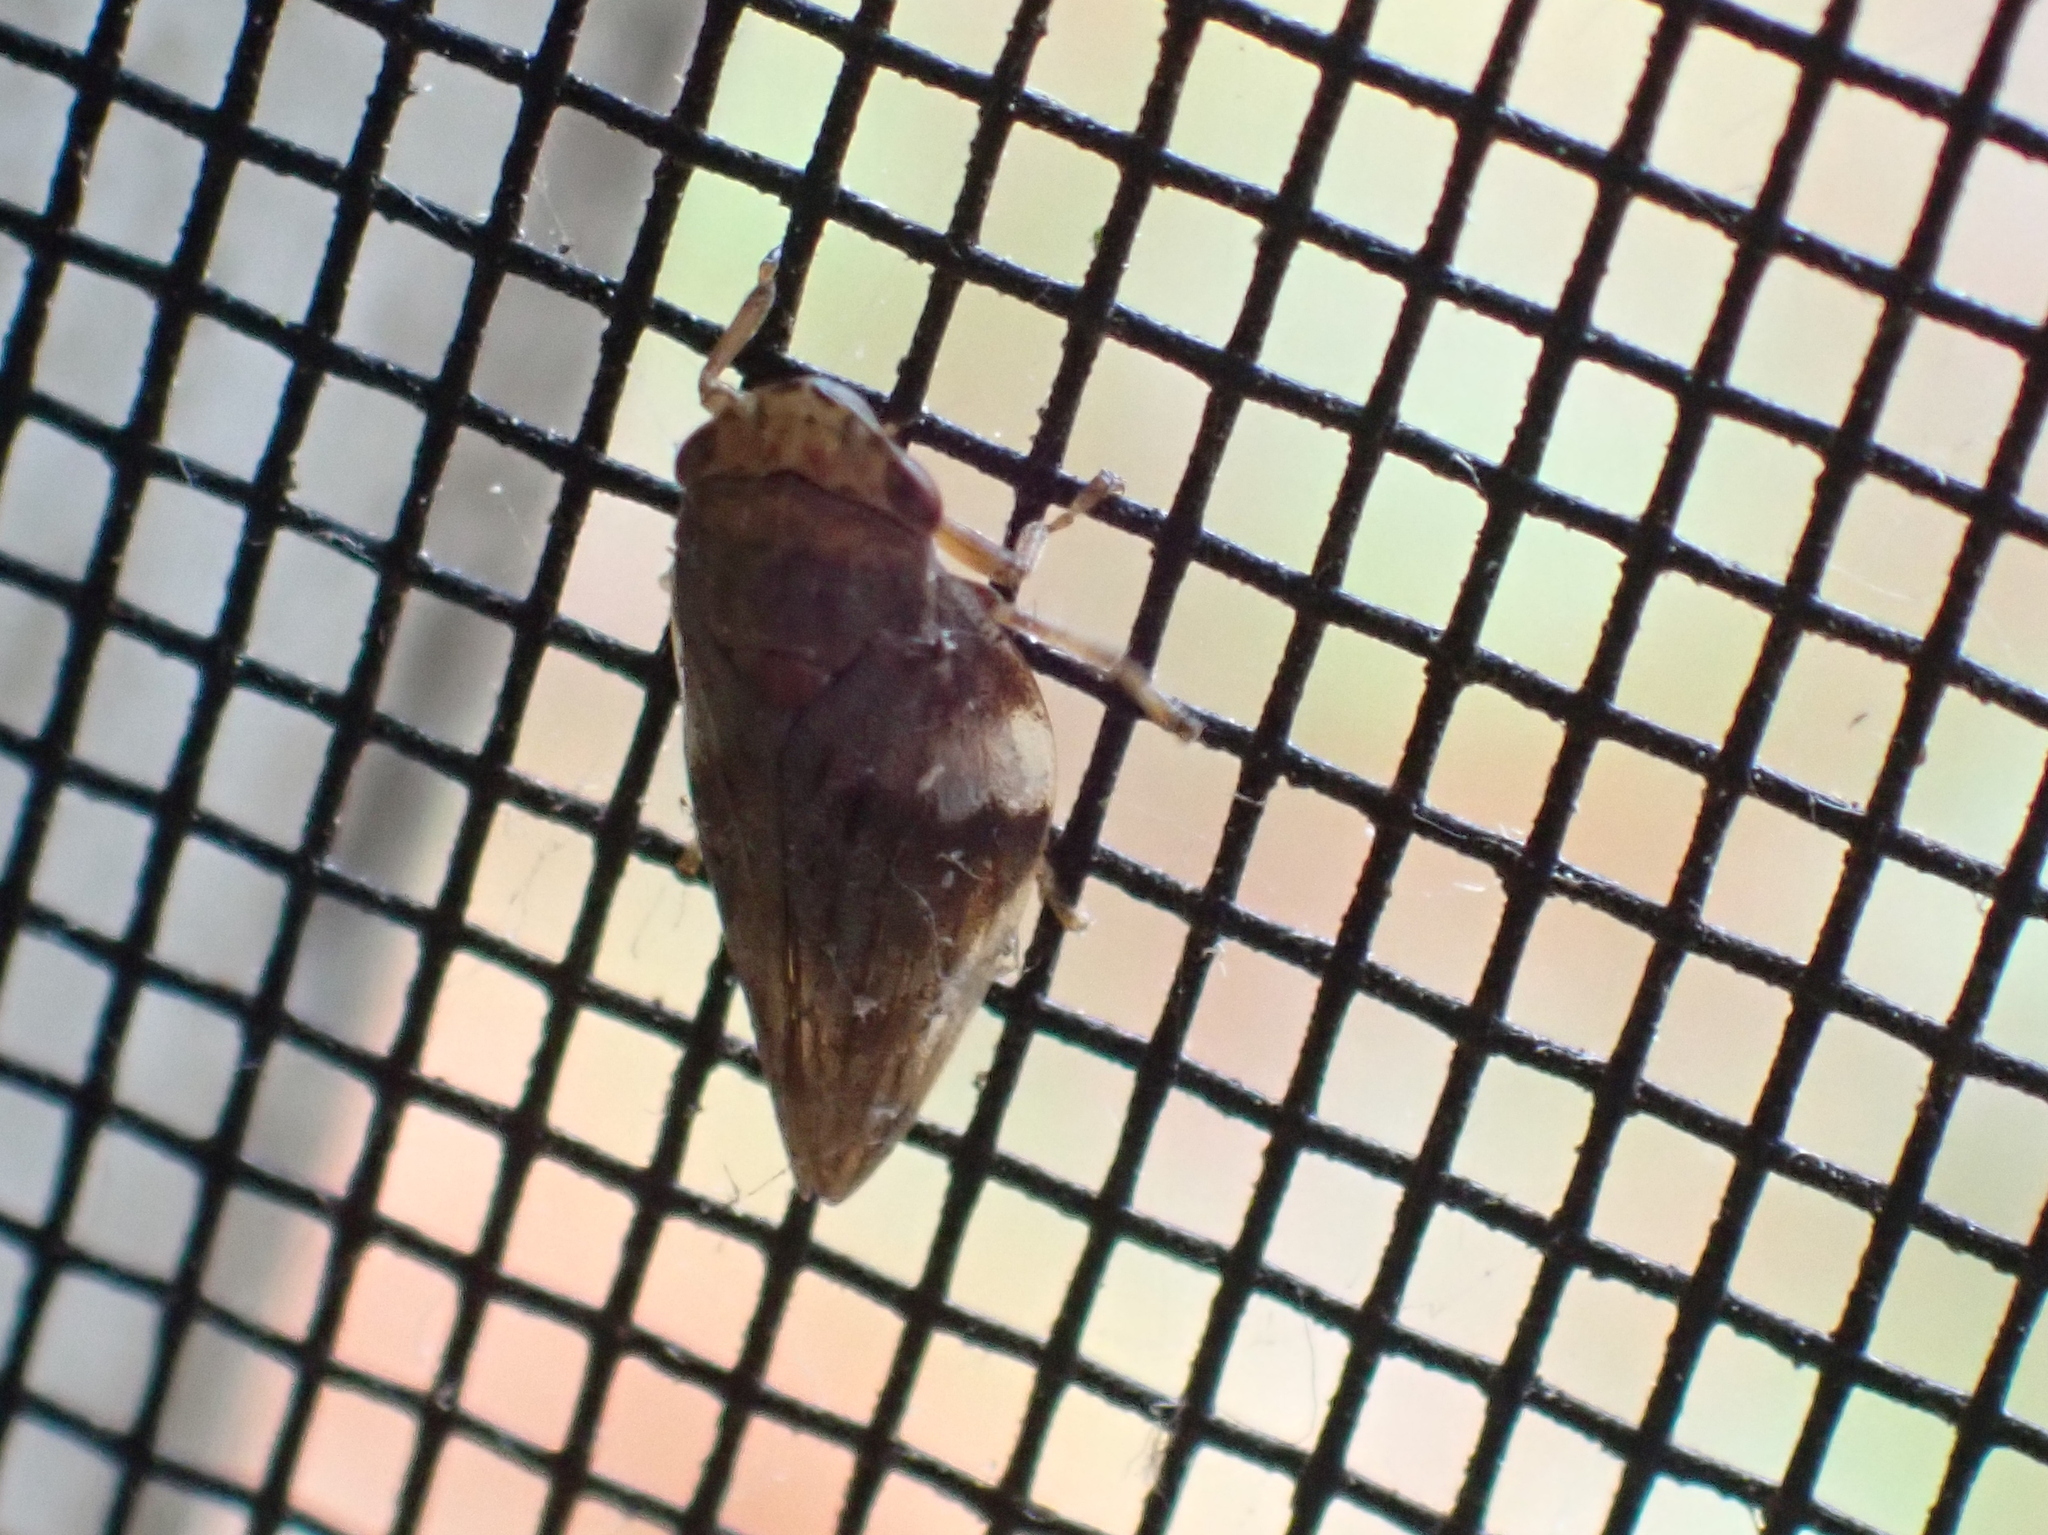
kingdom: Animalia
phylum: Arthropoda
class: Insecta
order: Hemiptera
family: Aphrophoridae
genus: Aphrophora
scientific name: Aphrophora alni
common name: European alder spittlebug
